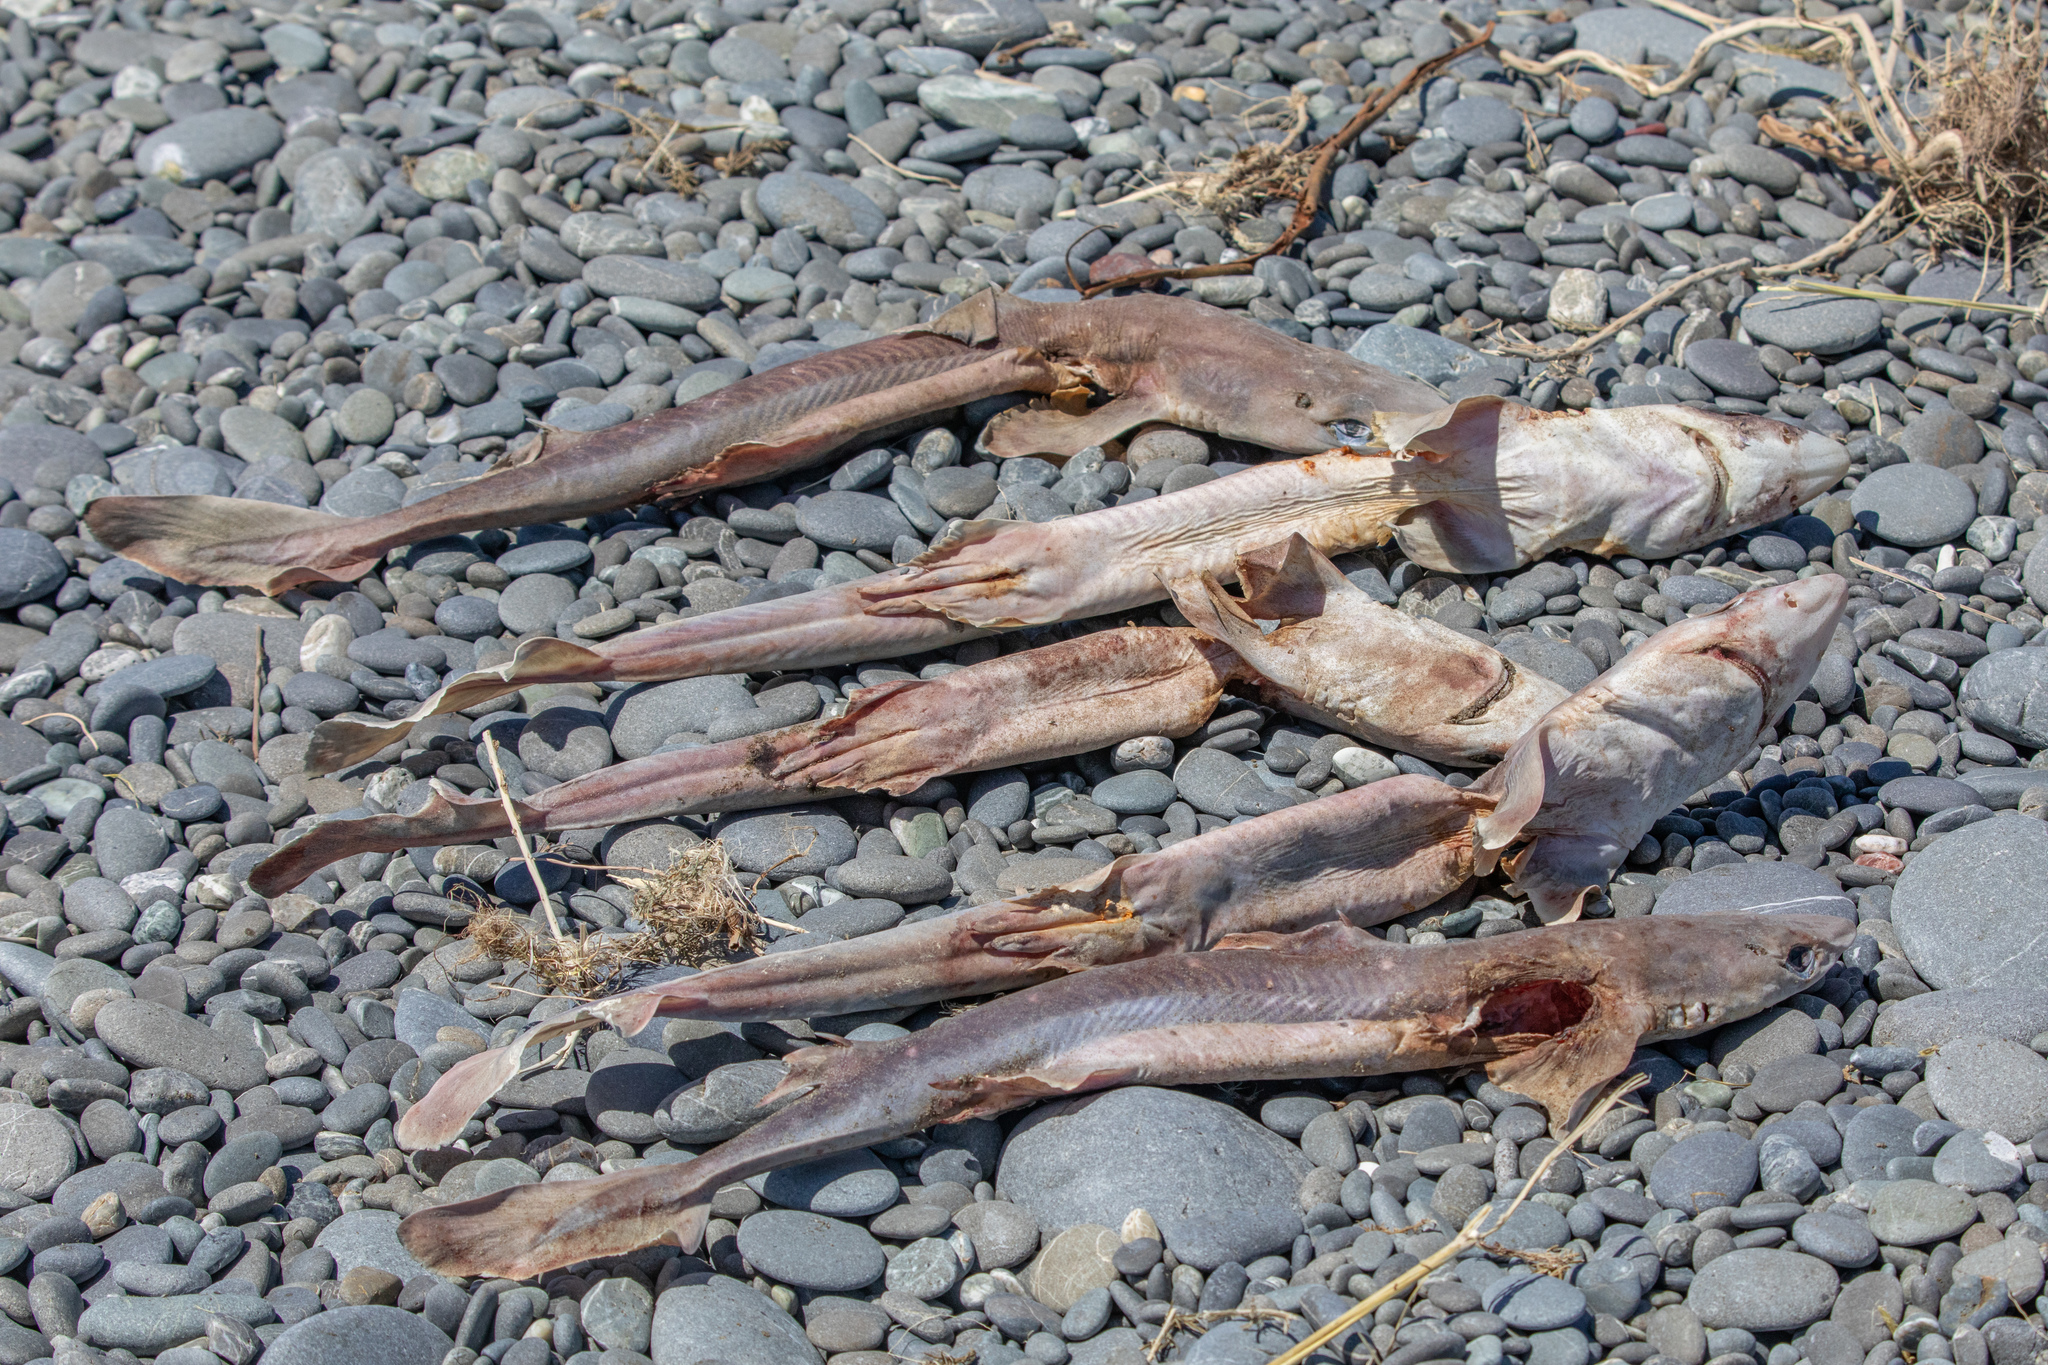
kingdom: Animalia
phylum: Chordata
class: Elasmobranchii
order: Squaliformes
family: Squalidae
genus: Squalus
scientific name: Squalus acanthias
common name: Spurdog
